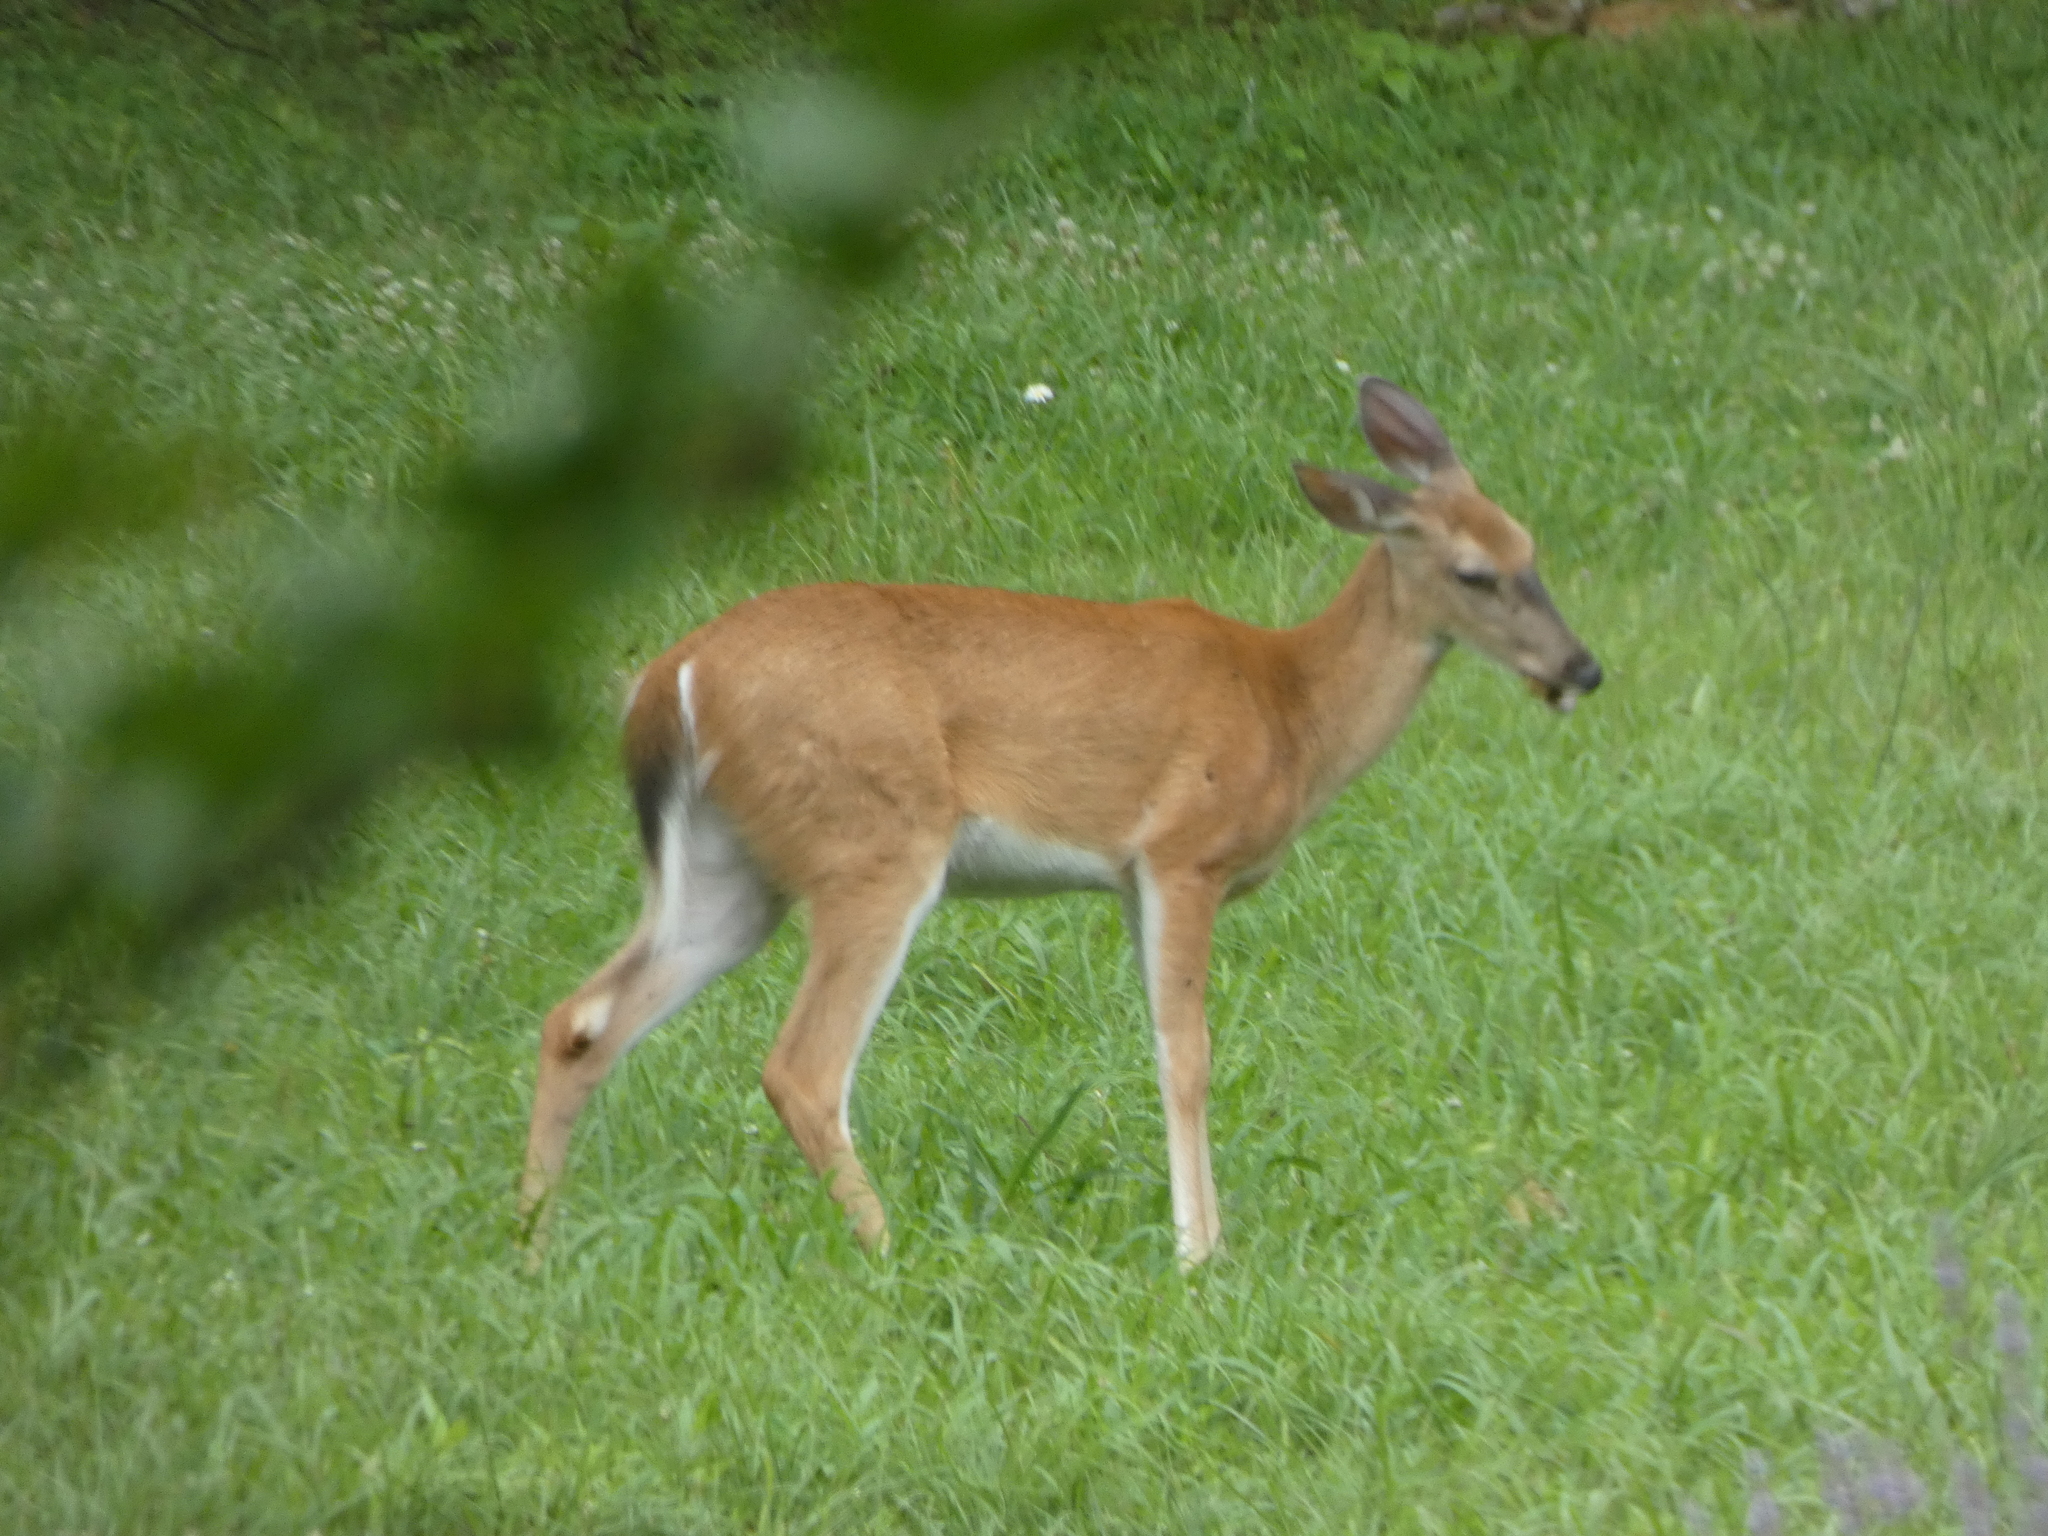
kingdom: Animalia
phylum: Chordata
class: Mammalia
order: Artiodactyla
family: Cervidae
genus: Odocoileus
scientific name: Odocoileus virginianus
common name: White-tailed deer
